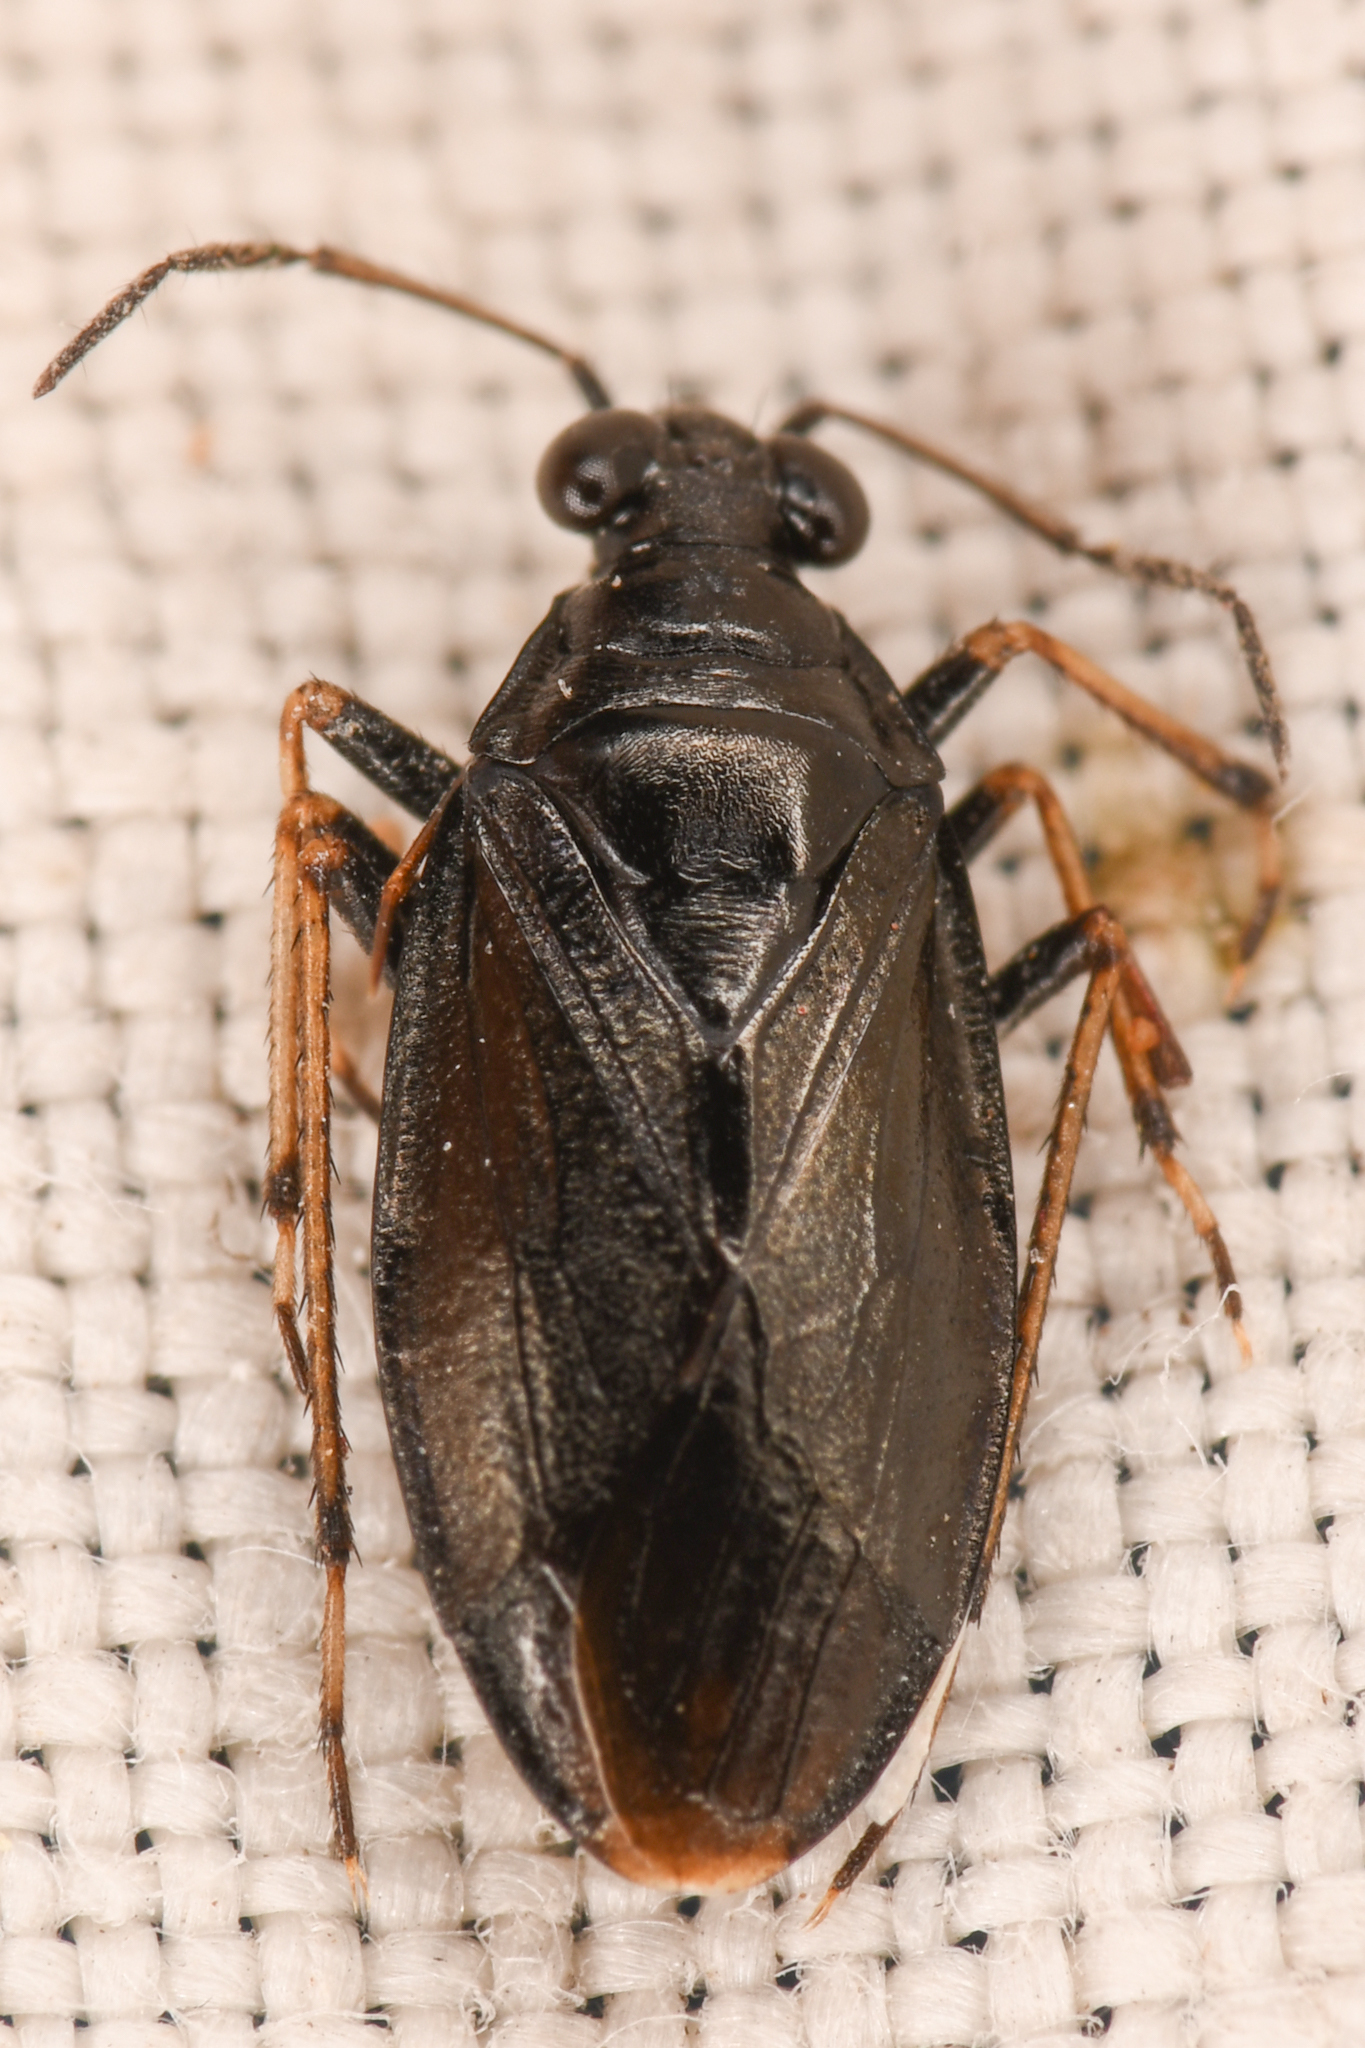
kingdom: Animalia
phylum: Arthropoda
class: Insecta
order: Hemiptera
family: Saldidae
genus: Salda
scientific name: Salda obscura
